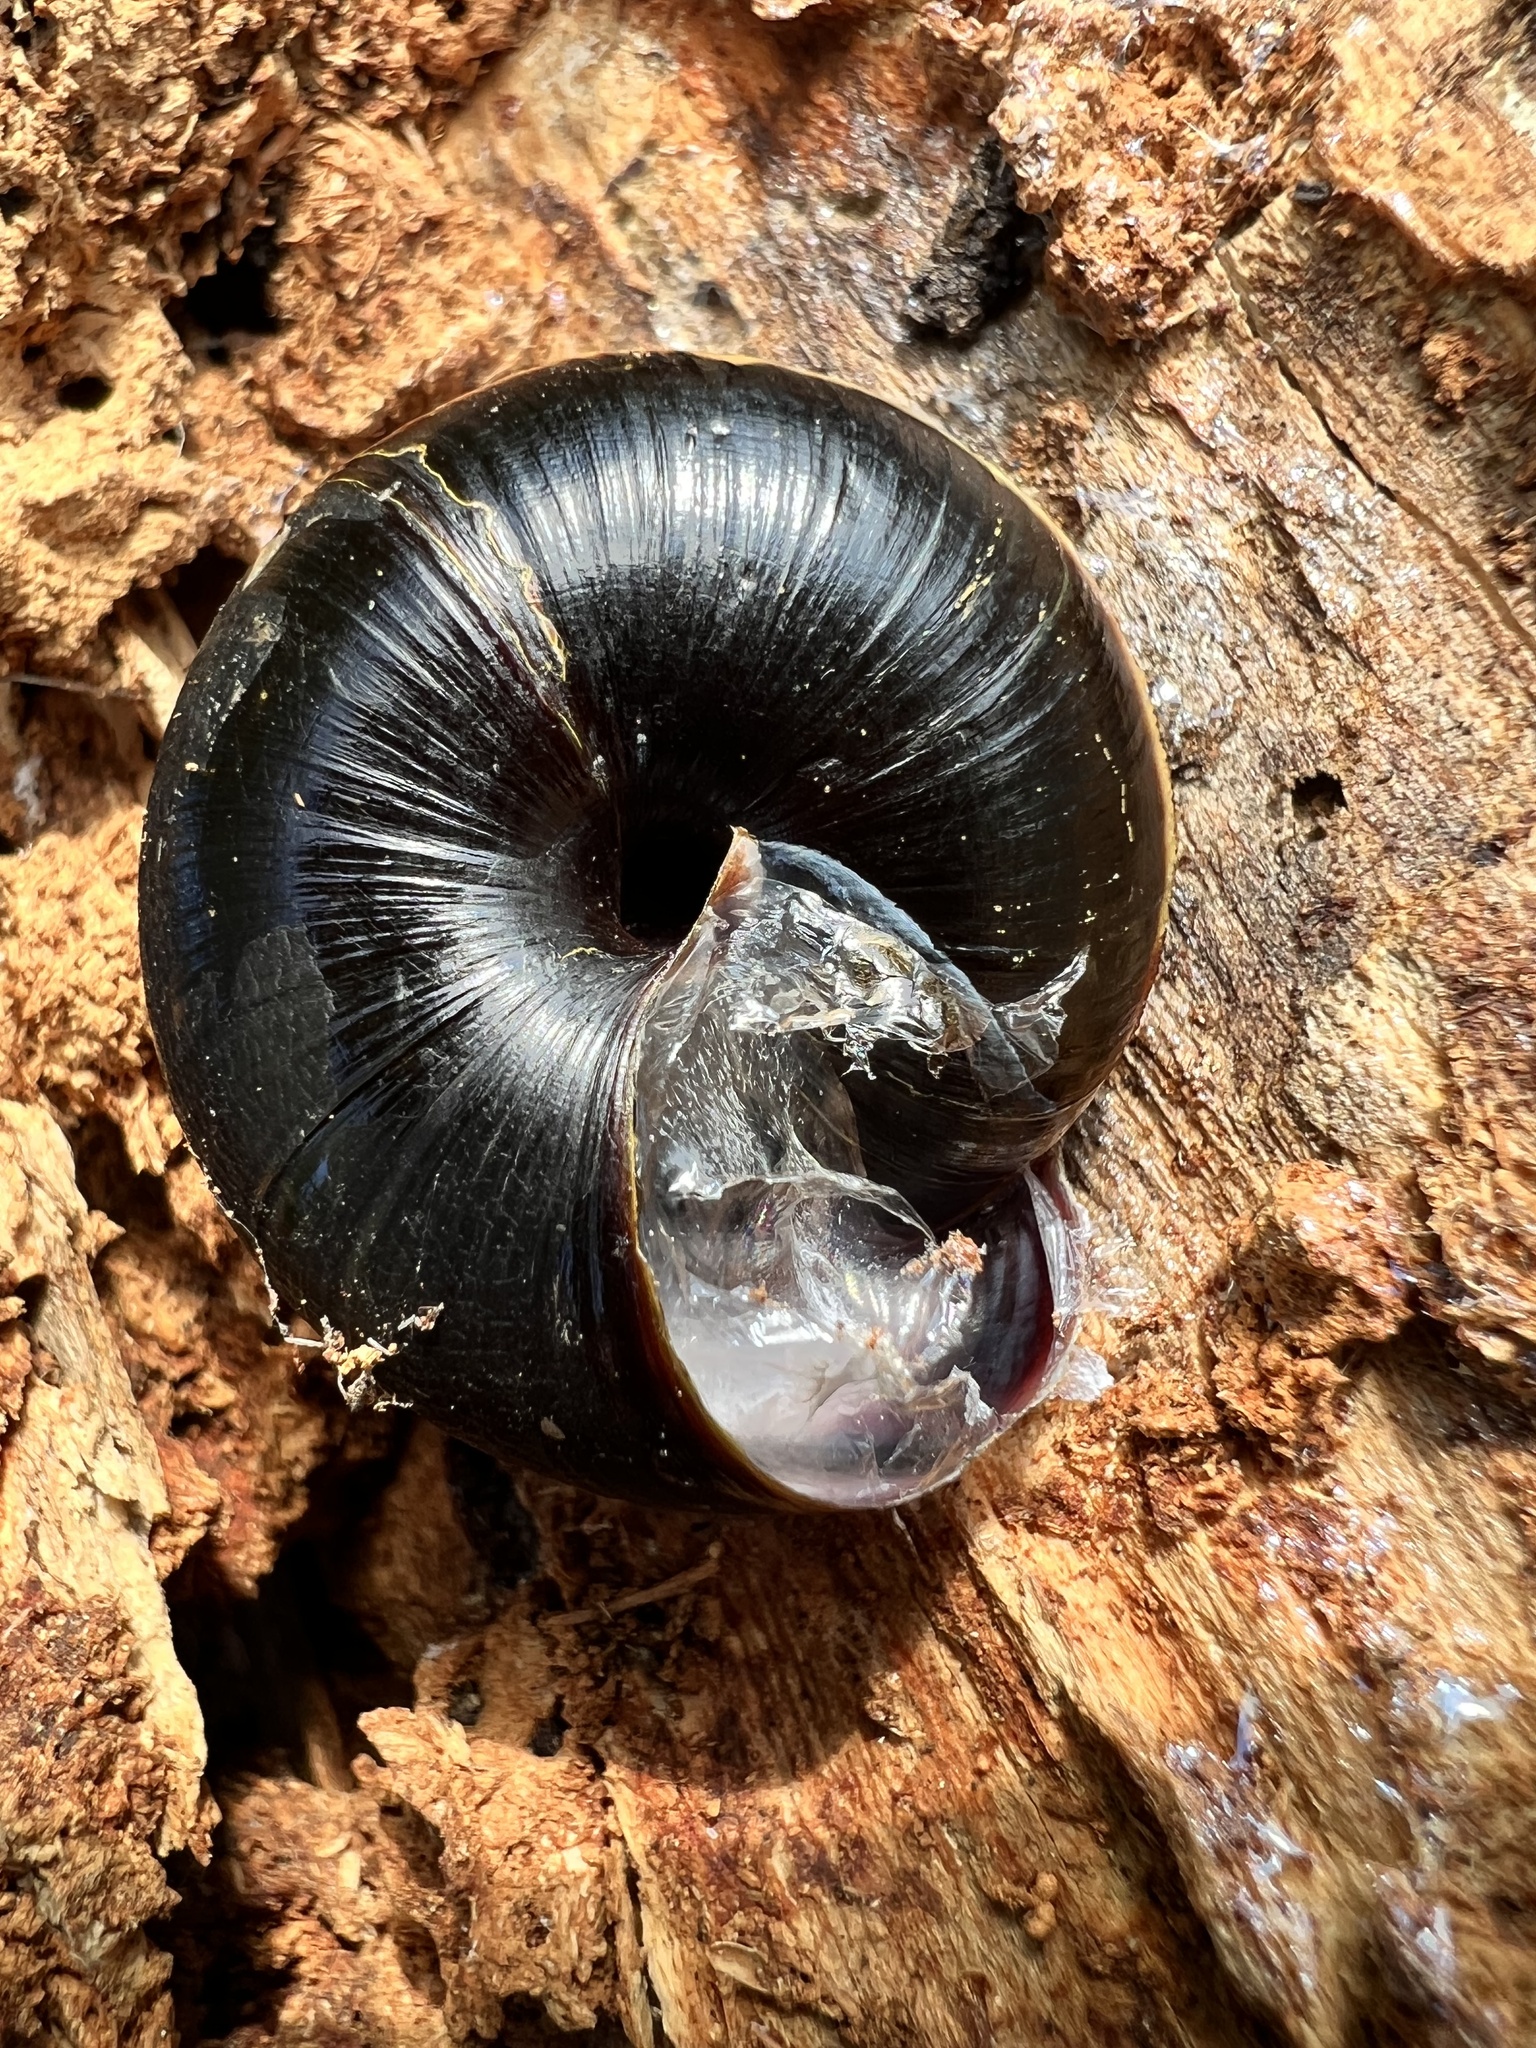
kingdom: Animalia
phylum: Mollusca
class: Gastropoda
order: Stylommatophora
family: Xanthonychidae
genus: Monadenia
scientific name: Monadenia fidelis
